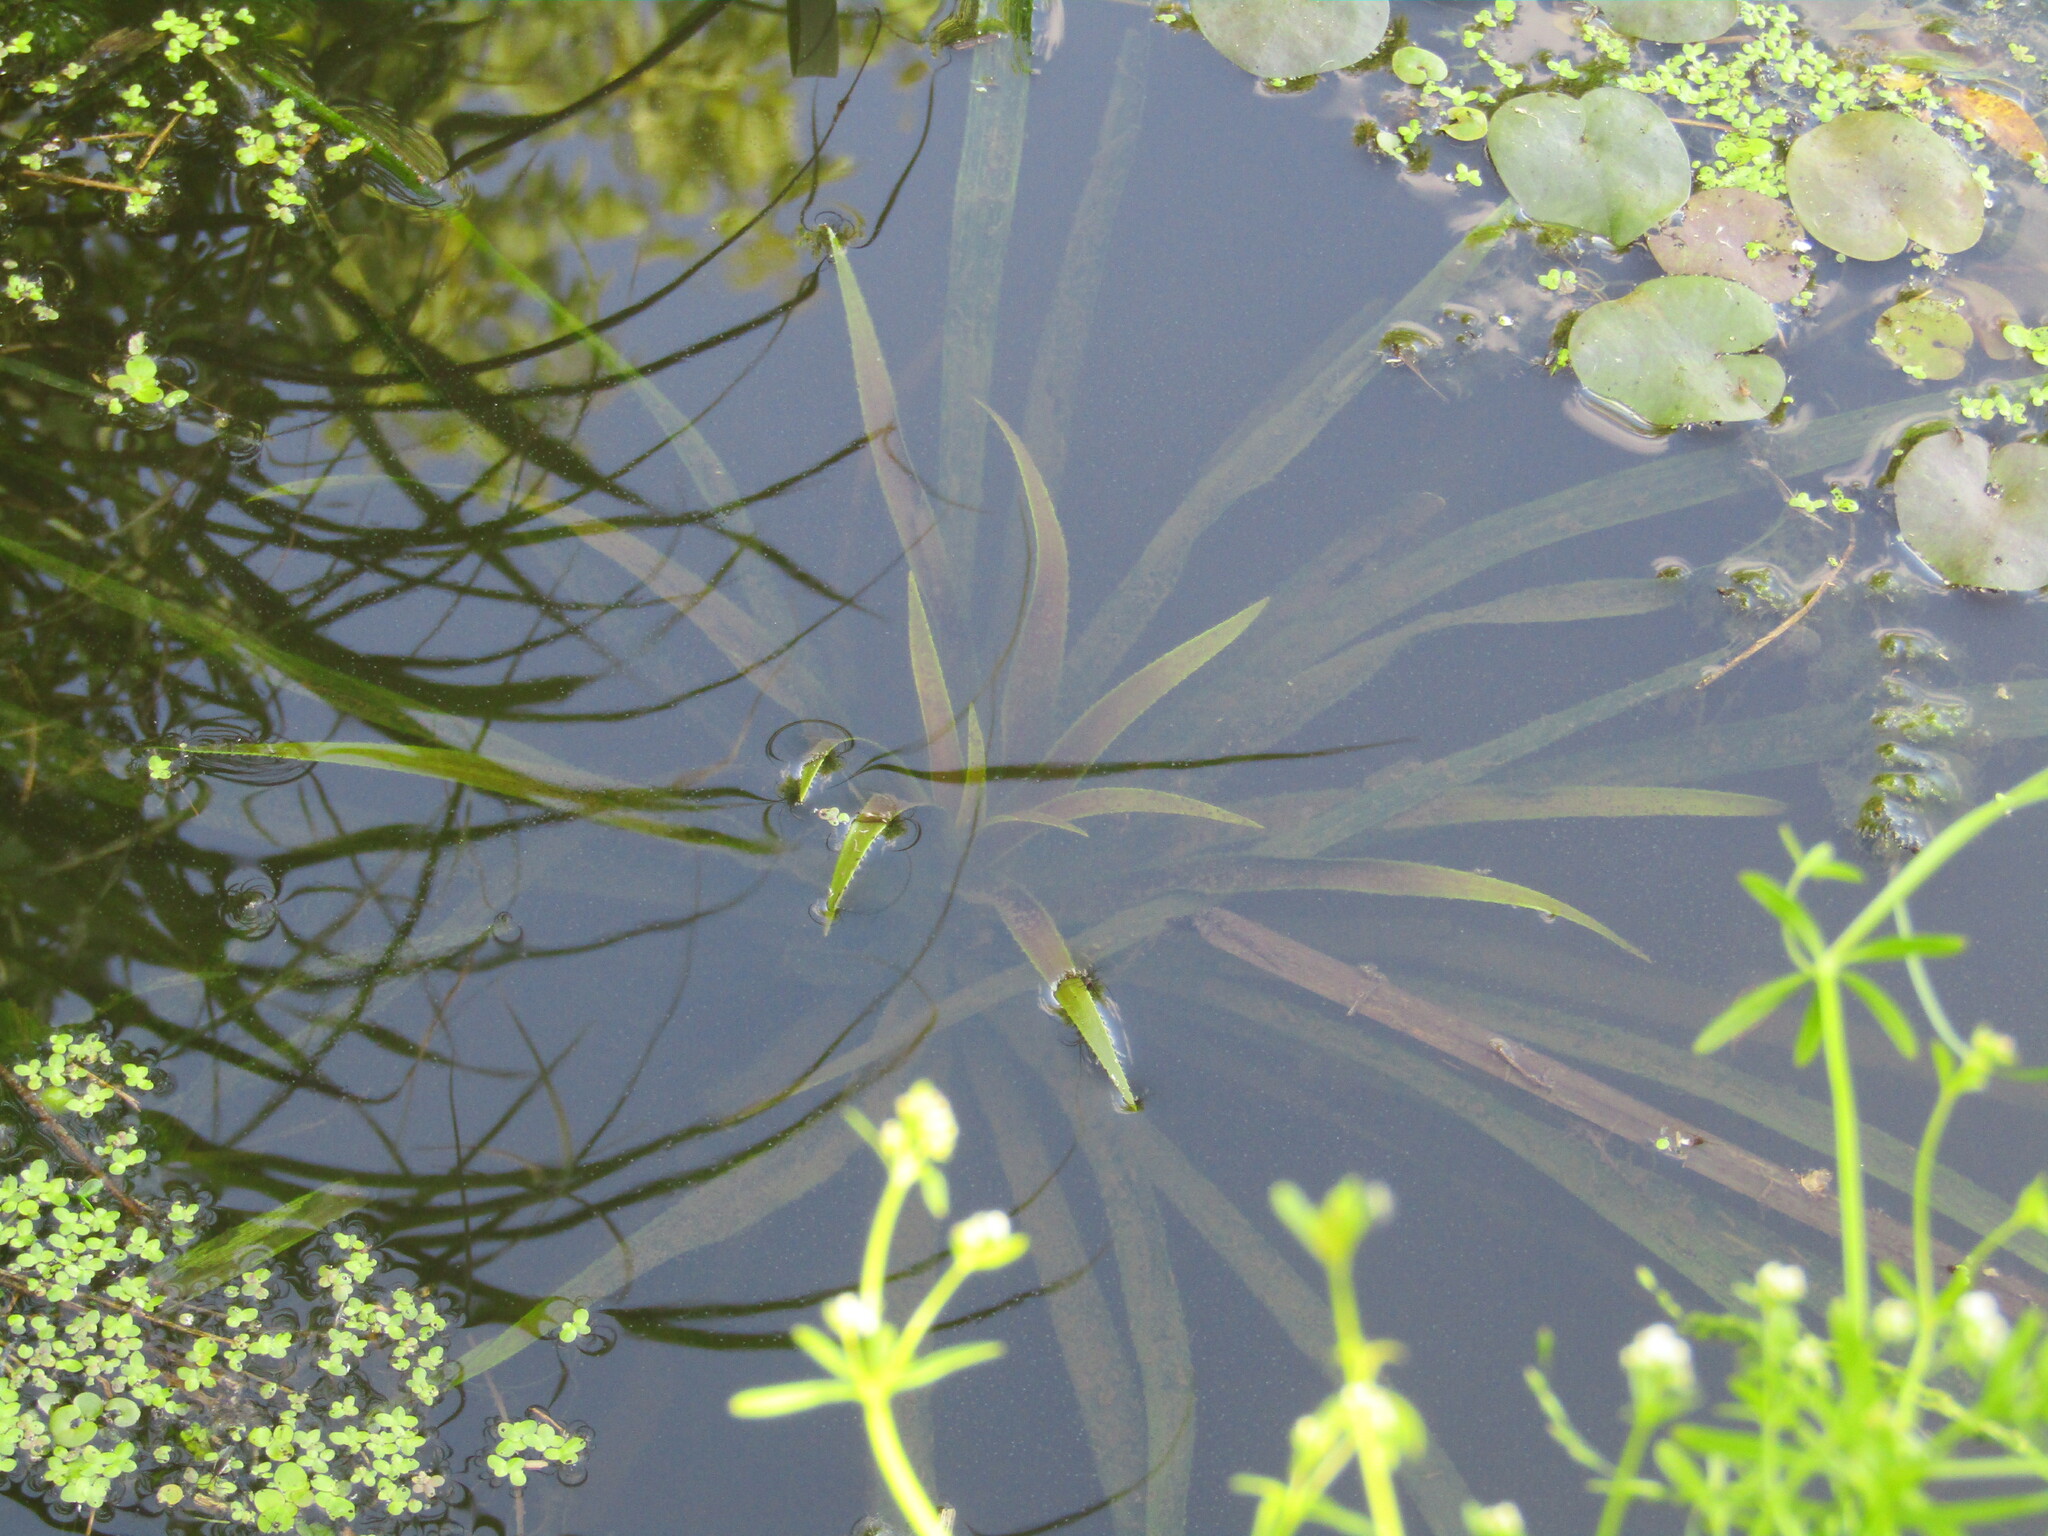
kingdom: Plantae
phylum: Tracheophyta
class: Liliopsida
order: Alismatales
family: Hydrocharitaceae
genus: Stratiotes
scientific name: Stratiotes aloides
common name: Water-soldier
